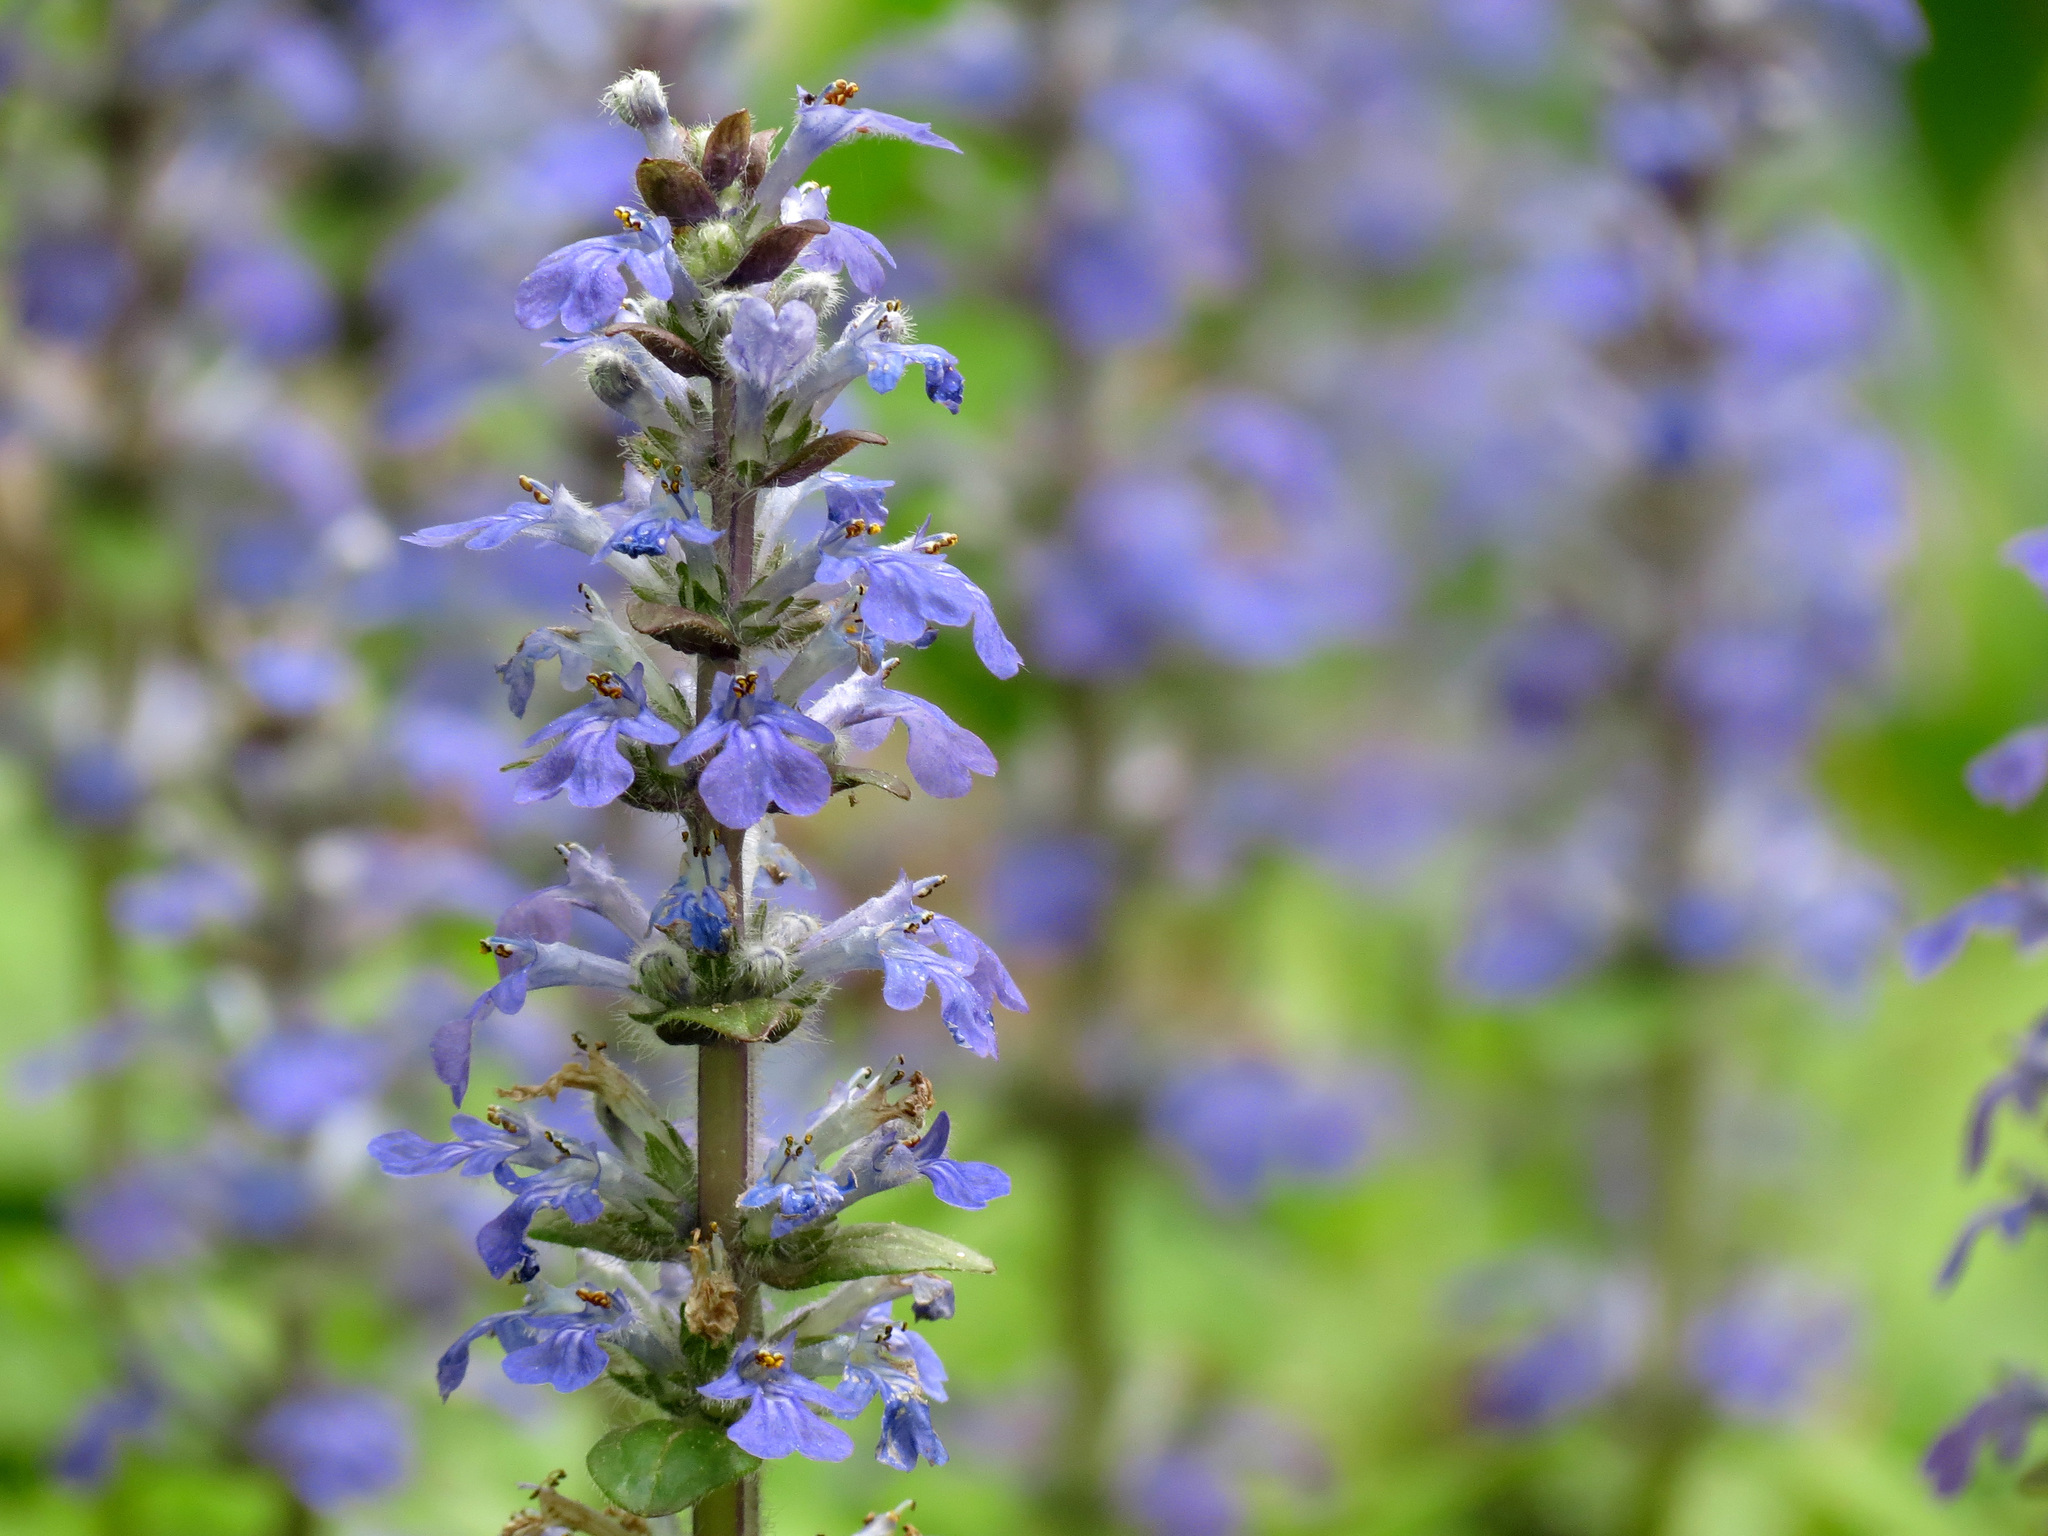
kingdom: Plantae
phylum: Tracheophyta
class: Magnoliopsida
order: Lamiales
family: Lamiaceae
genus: Ajuga
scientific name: Ajuga reptans
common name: Bugle
